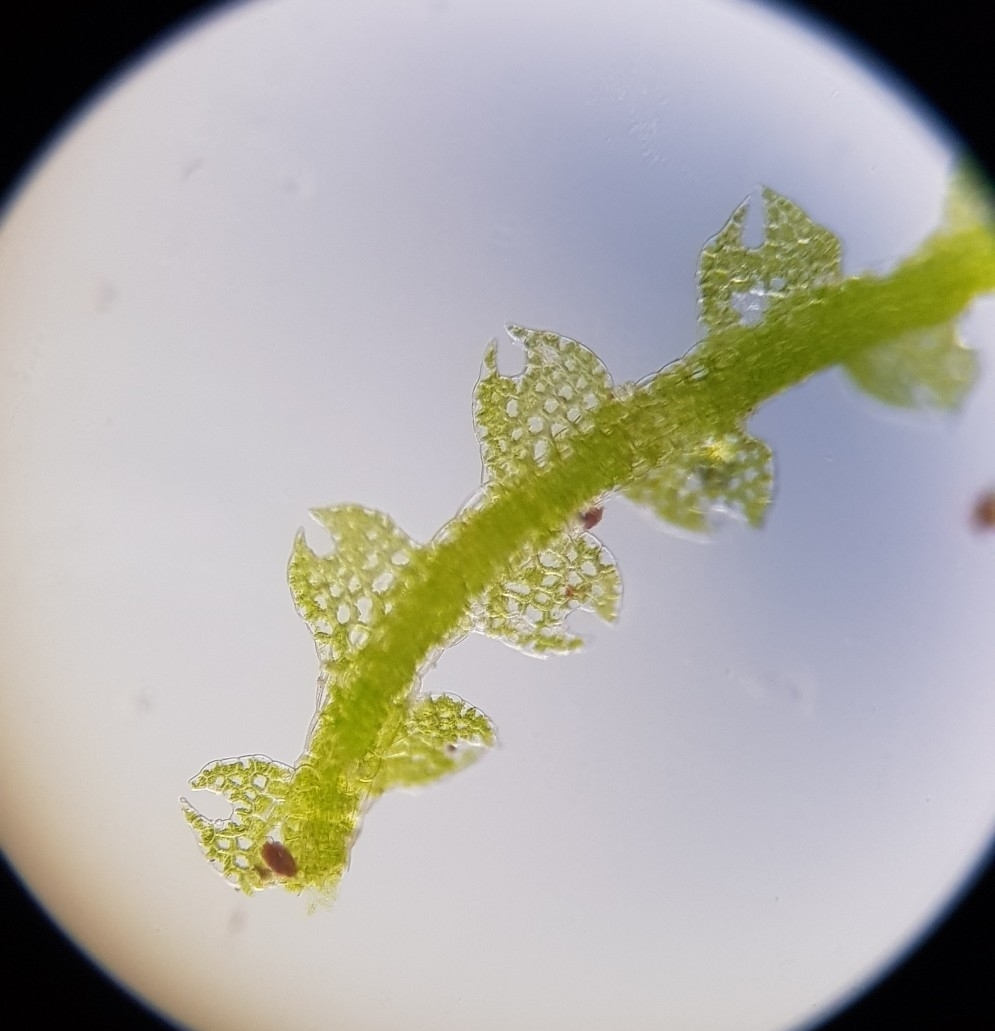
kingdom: Plantae
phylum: Marchantiophyta
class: Jungermanniopsida
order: Jungermanniales
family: Cephaloziaceae
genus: Fuscocephaloziopsis
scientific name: Fuscocephaloziopsis lunulifolia
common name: Moon-leaved pincerwort
